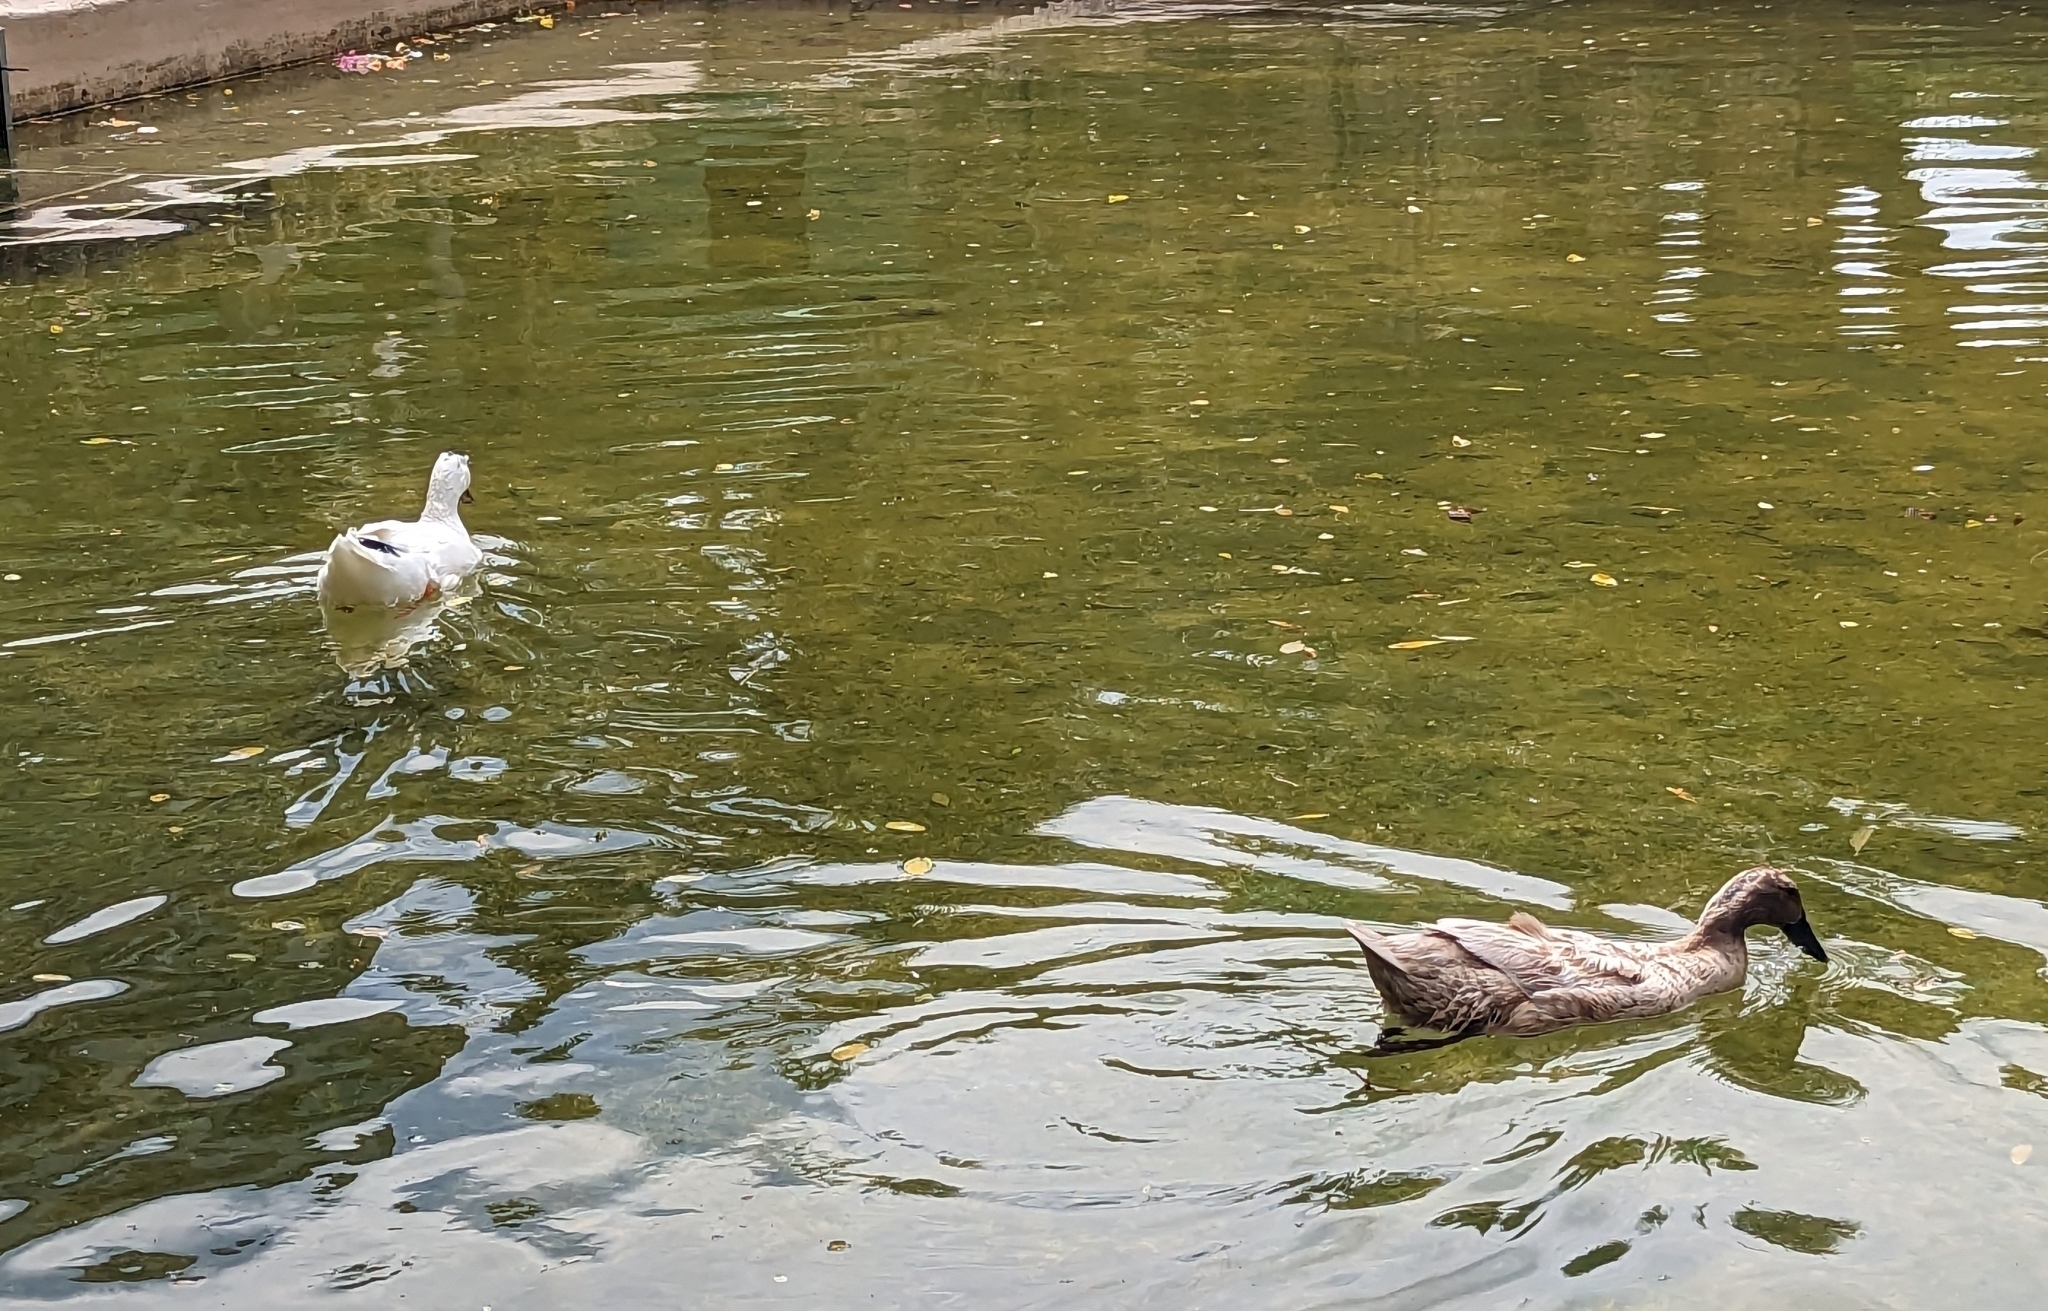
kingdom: Animalia
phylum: Chordata
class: Aves
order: Anseriformes
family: Anatidae
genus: Anas
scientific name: Anas platyrhynchos
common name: Mallard
